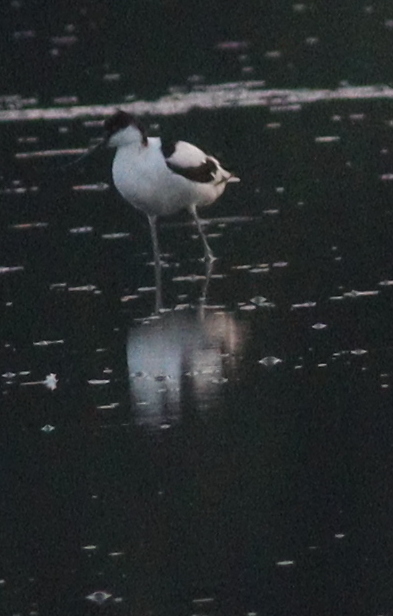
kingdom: Animalia
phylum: Chordata
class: Aves
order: Charadriiformes
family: Recurvirostridae
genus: Recurvirostra
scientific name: Recurvirostra avosetta
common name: Pied avocet
